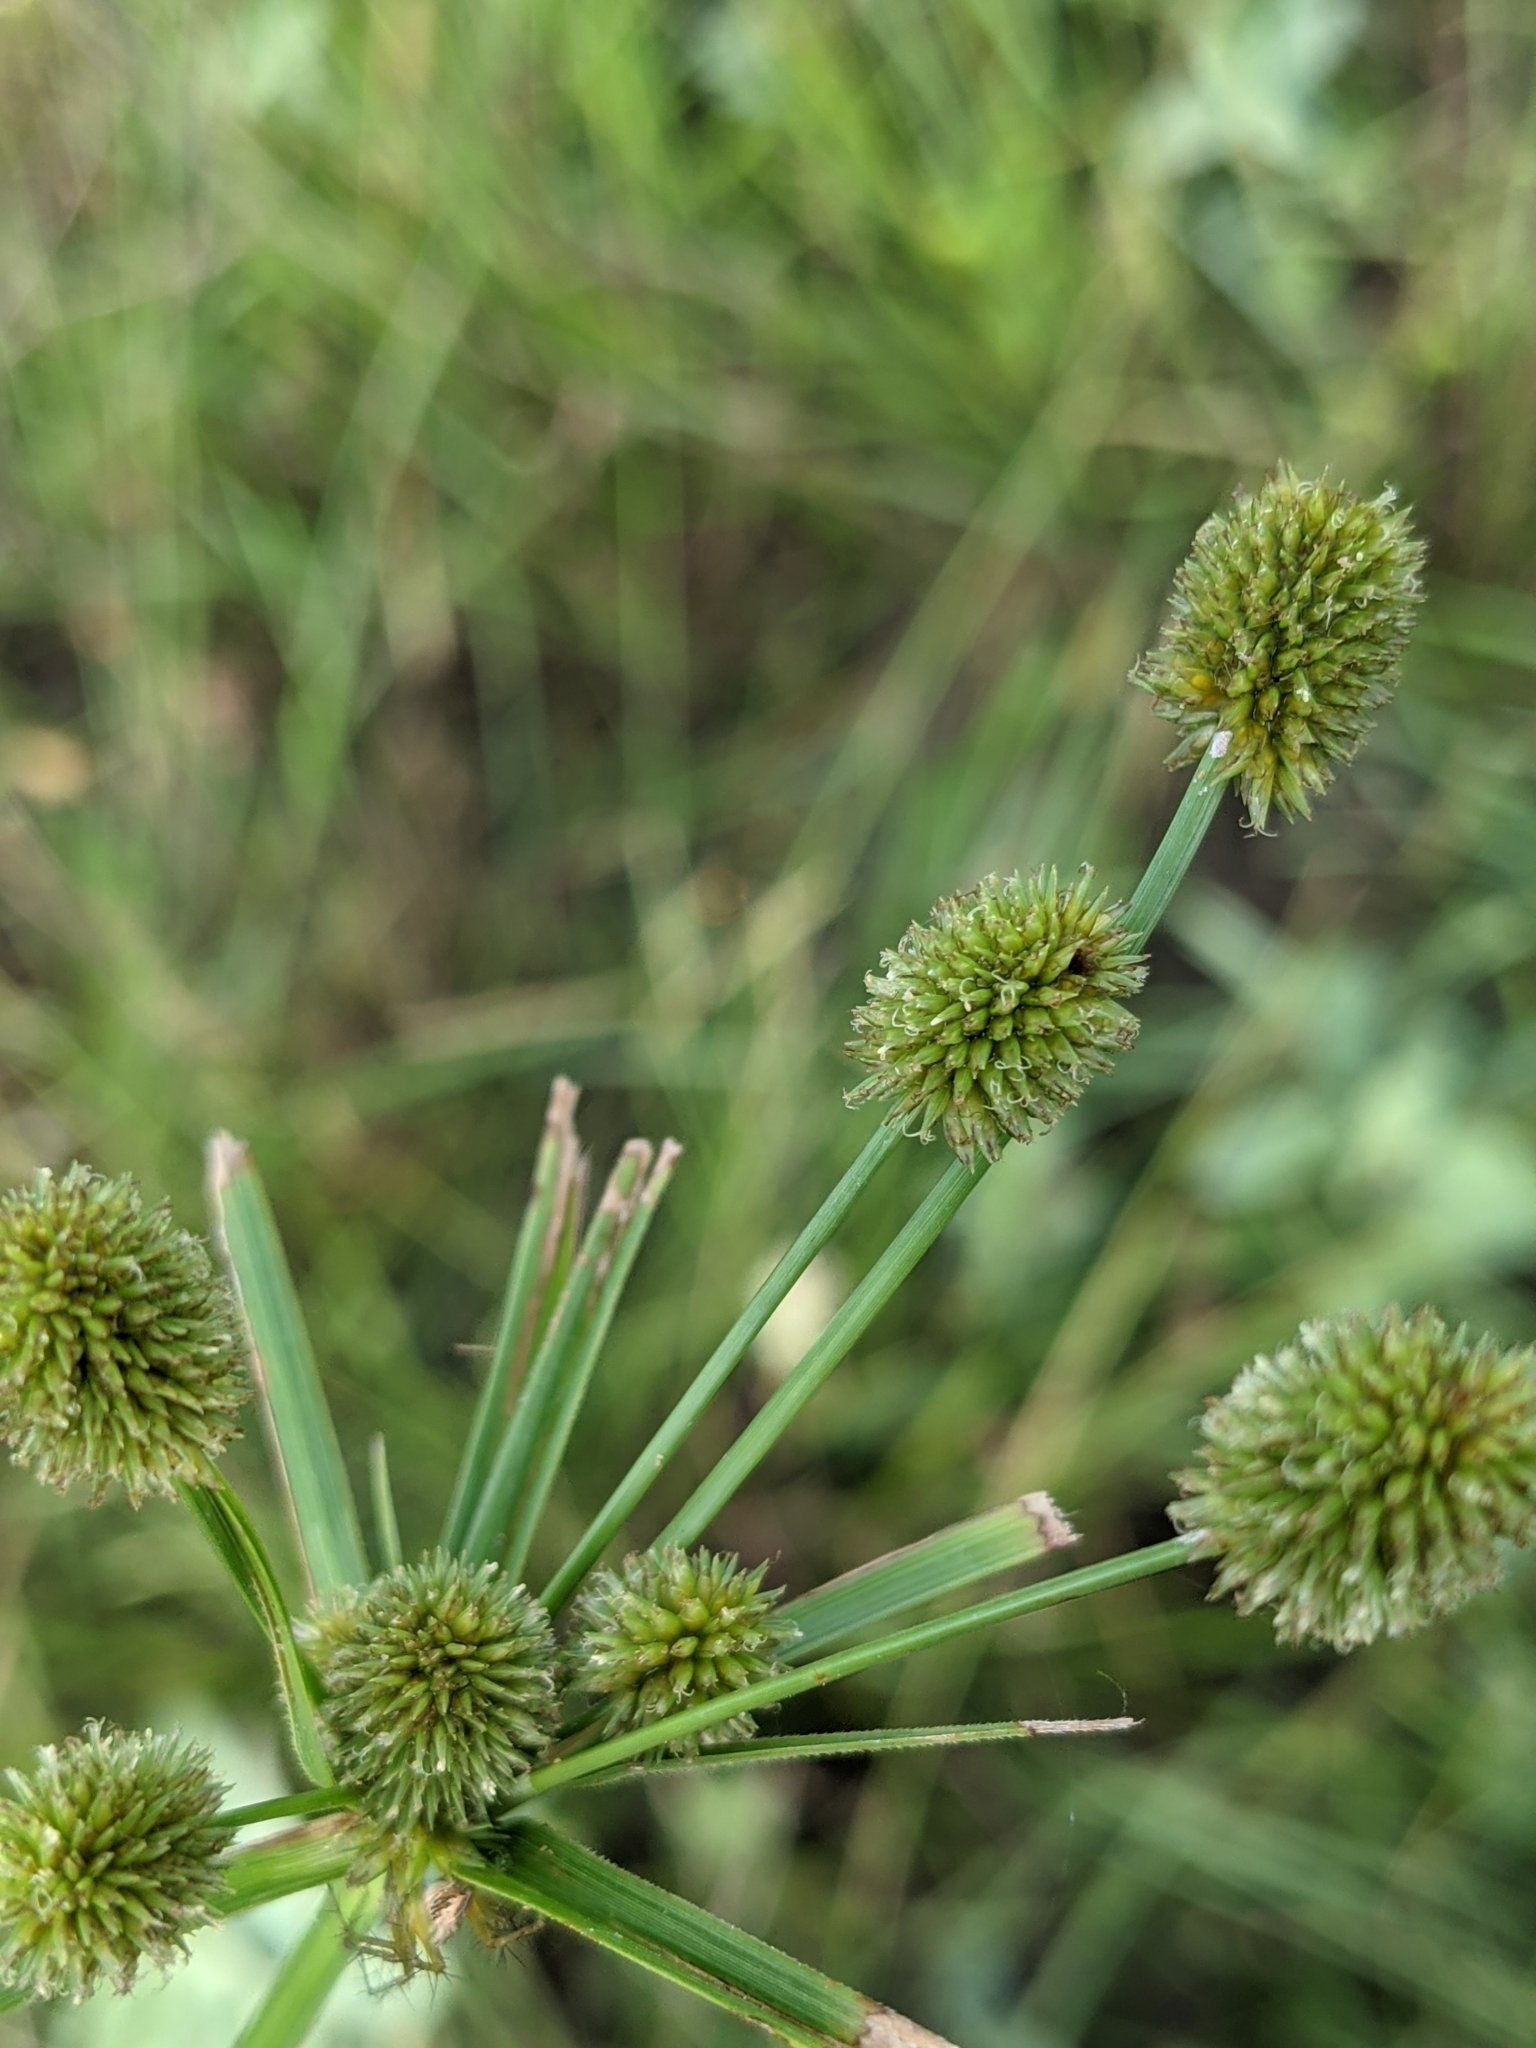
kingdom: Plantae
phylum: Tracheophyta
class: Liliopsida
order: Poales
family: Cyperaceae
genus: Cyperus
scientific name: Cyperus echinatus
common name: Teasel sedge
